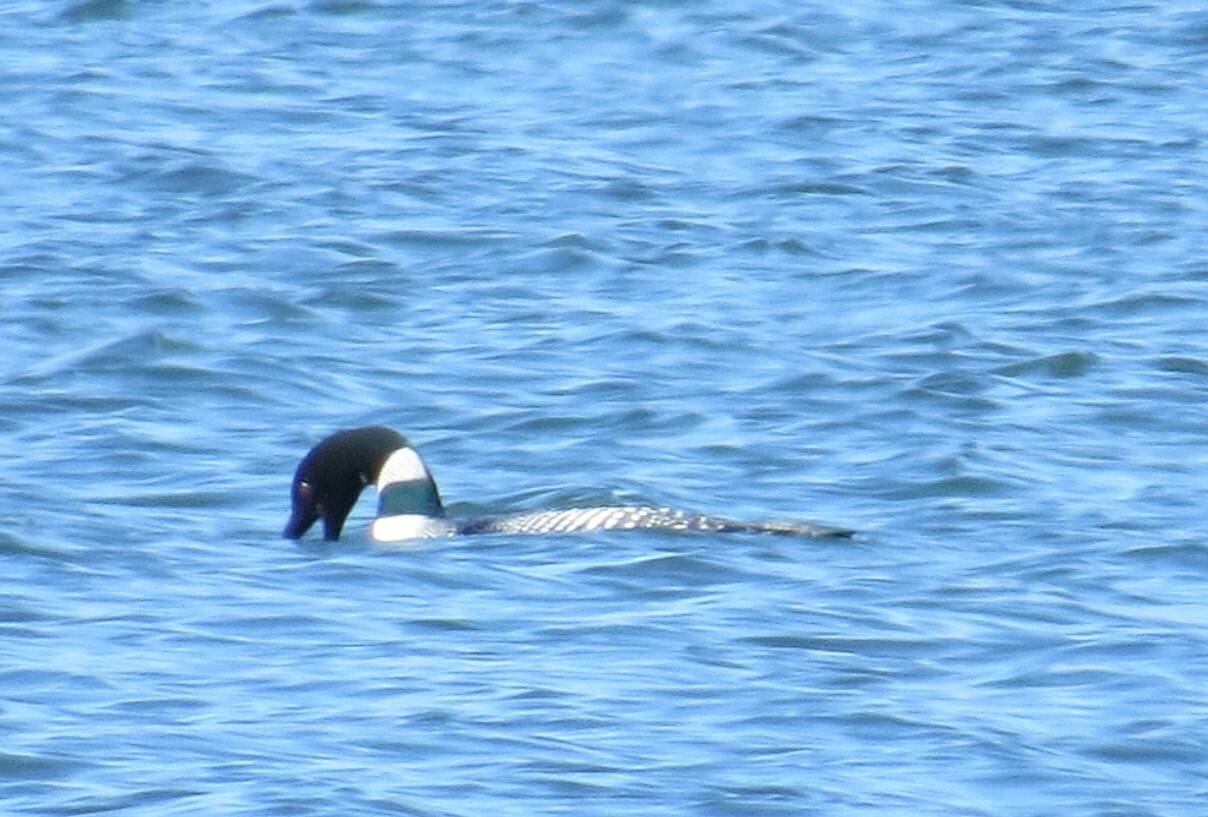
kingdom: Animalia
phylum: Chordata
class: Aves
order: Gaviiformes
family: Gaviidae
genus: Gavia
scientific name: Gavia immer
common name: Common loon
